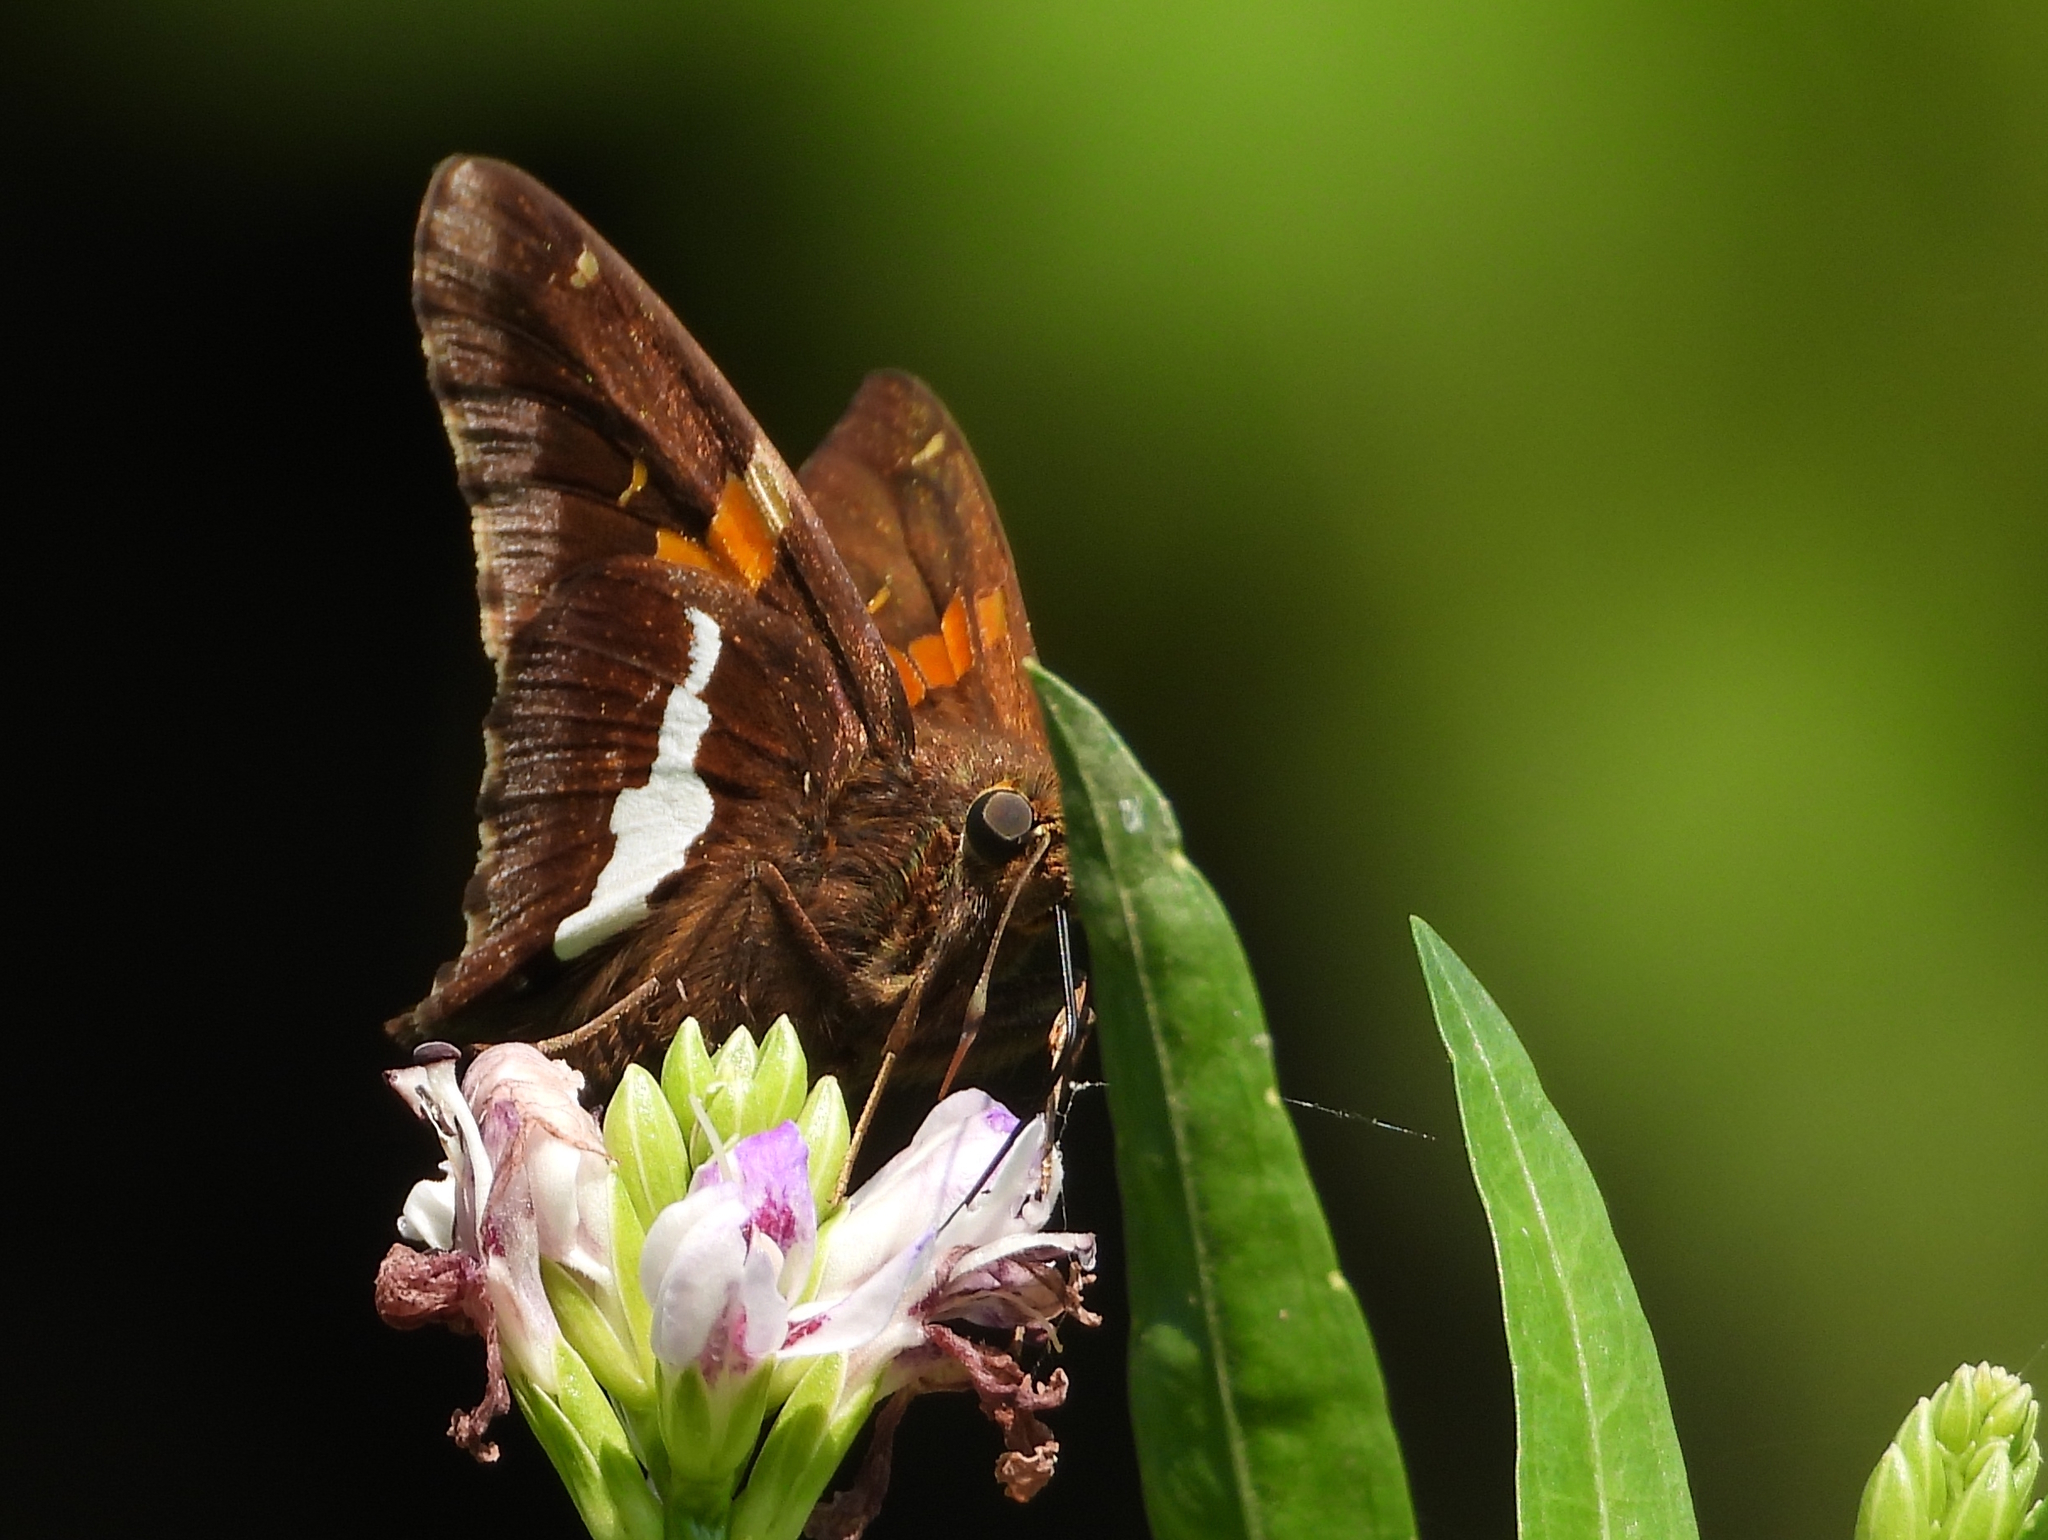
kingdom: Animalia
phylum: Arthropoda
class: Insecta
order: Lepidoptera
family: Hesperiidae
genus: Epargyreus
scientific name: Epargyreus clarus
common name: Silver-spotted skipper
